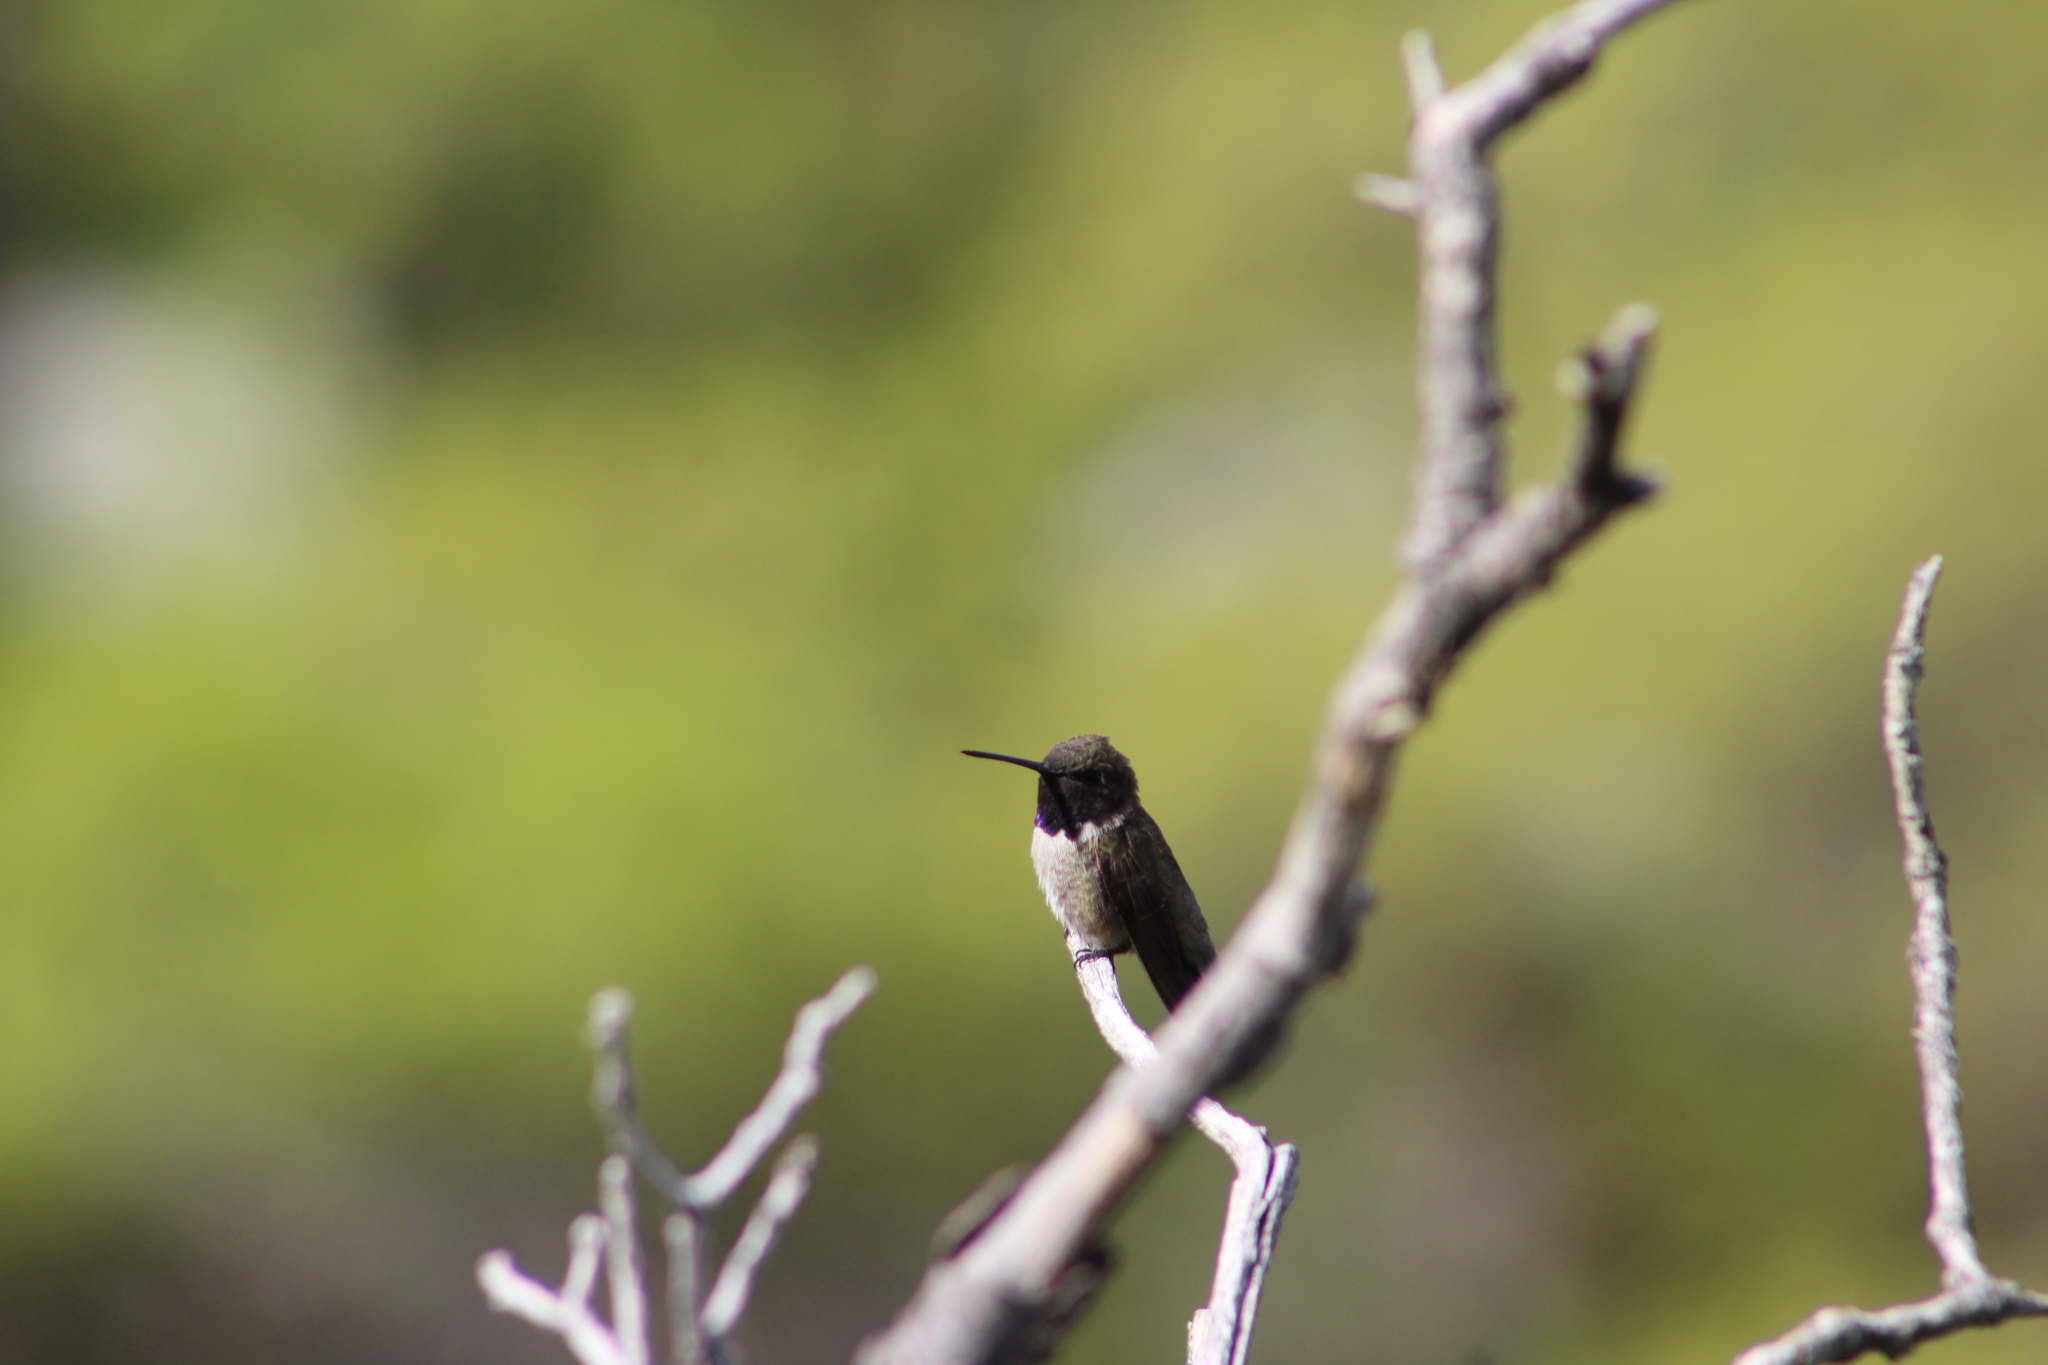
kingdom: Animalia
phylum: Chordata
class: Aves
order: Apodiformes
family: Trochilidae
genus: Archilochus
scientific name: Archilochus alexandri
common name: Black-chinned hummingbird
